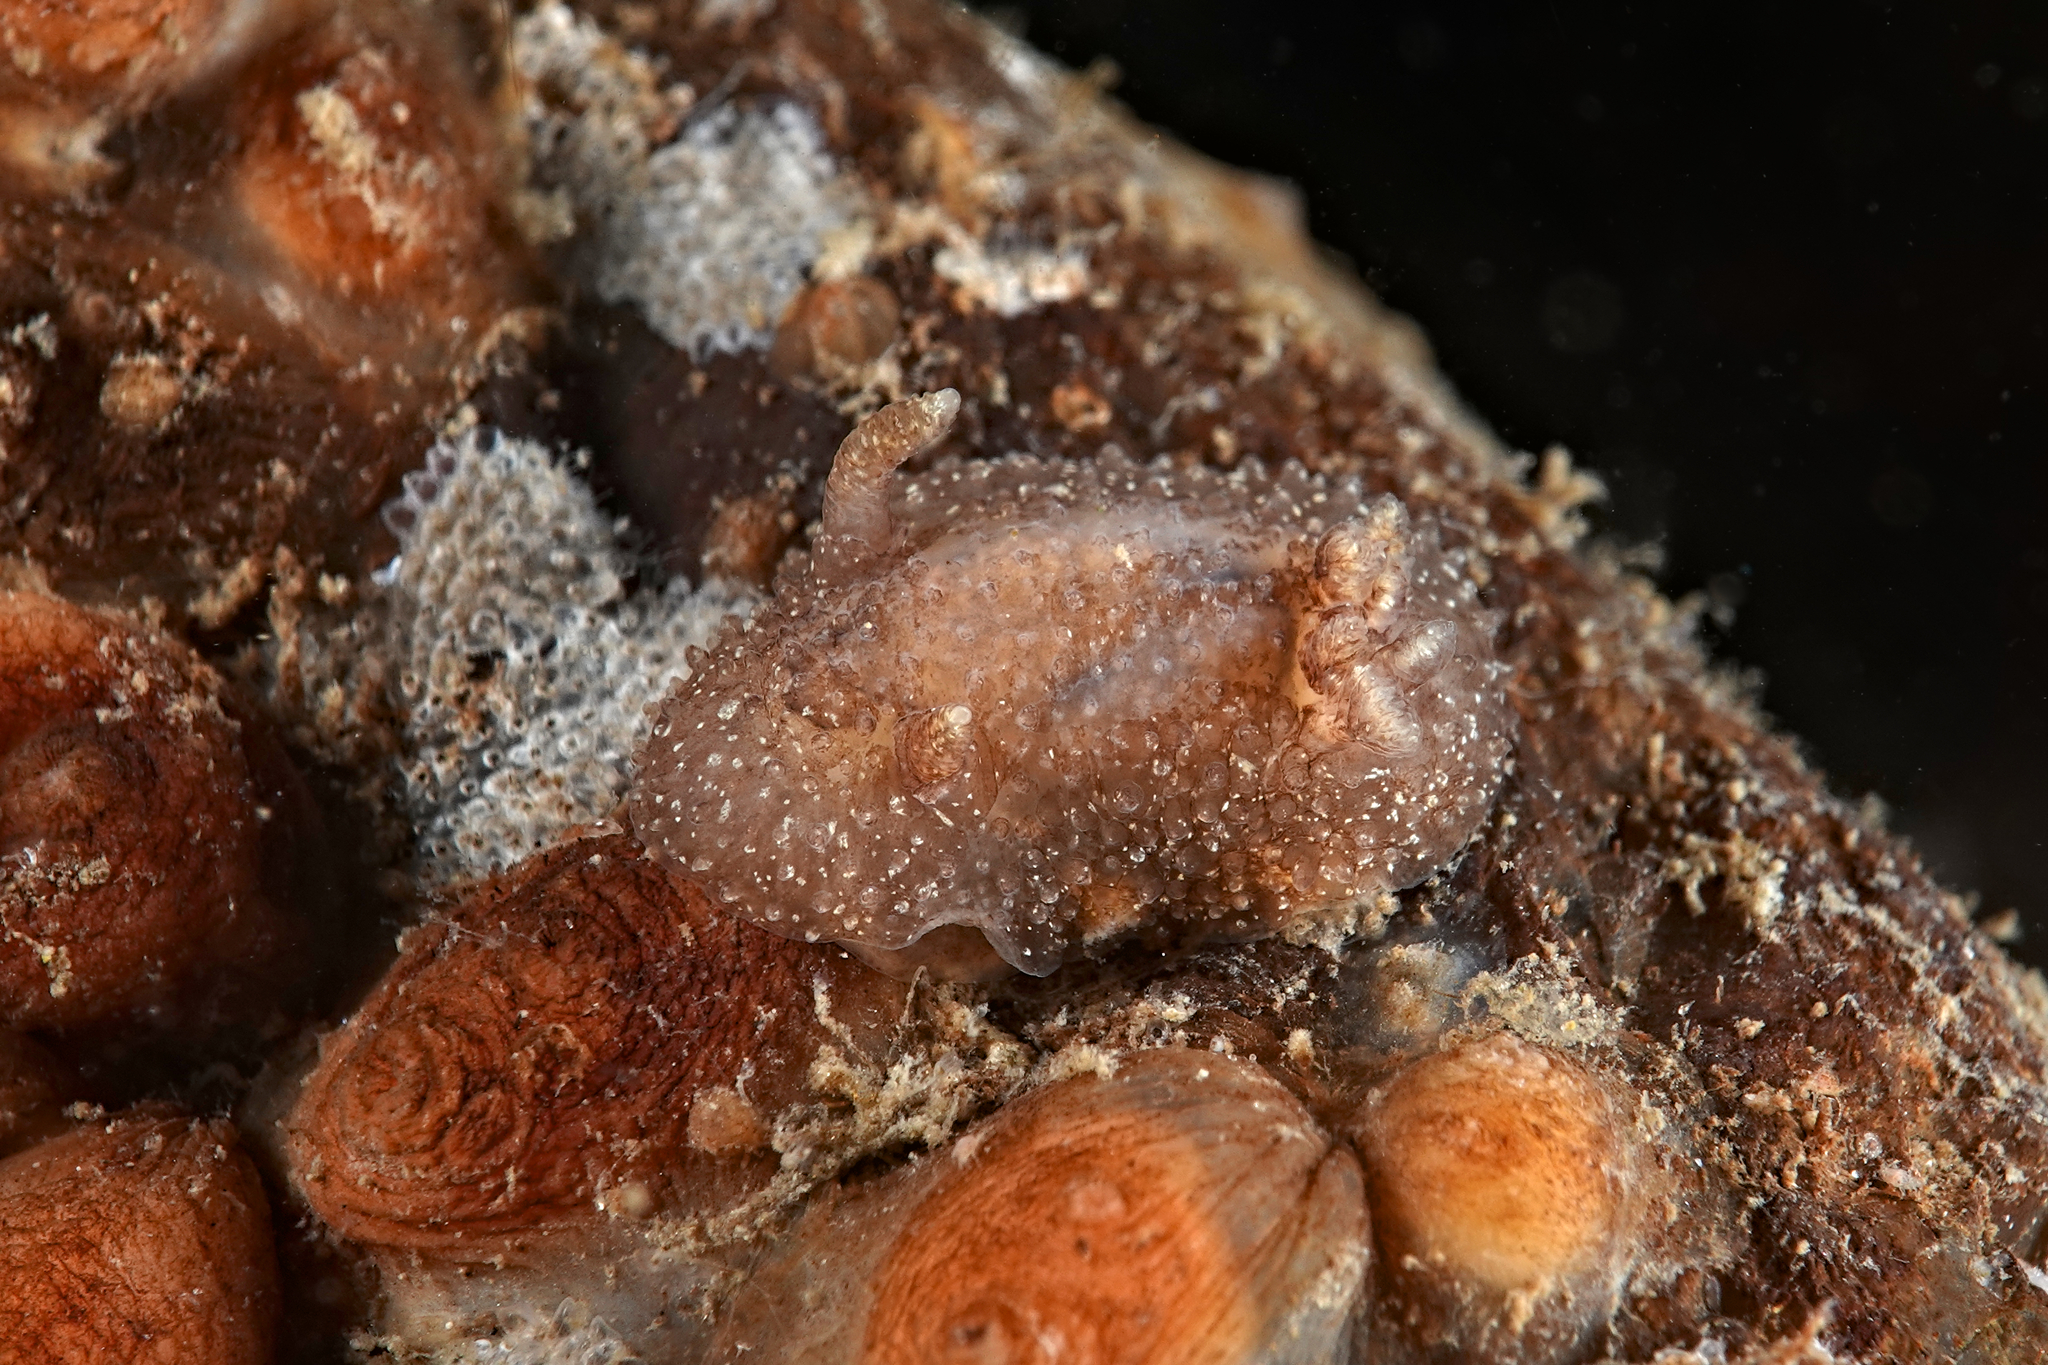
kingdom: Animalia
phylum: Mollusca
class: Gastropoda
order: Nudibranchia
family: Onchidorididae
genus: Acanthodoris
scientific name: Acanthodoris pilosa
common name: Hairy spiny doris
